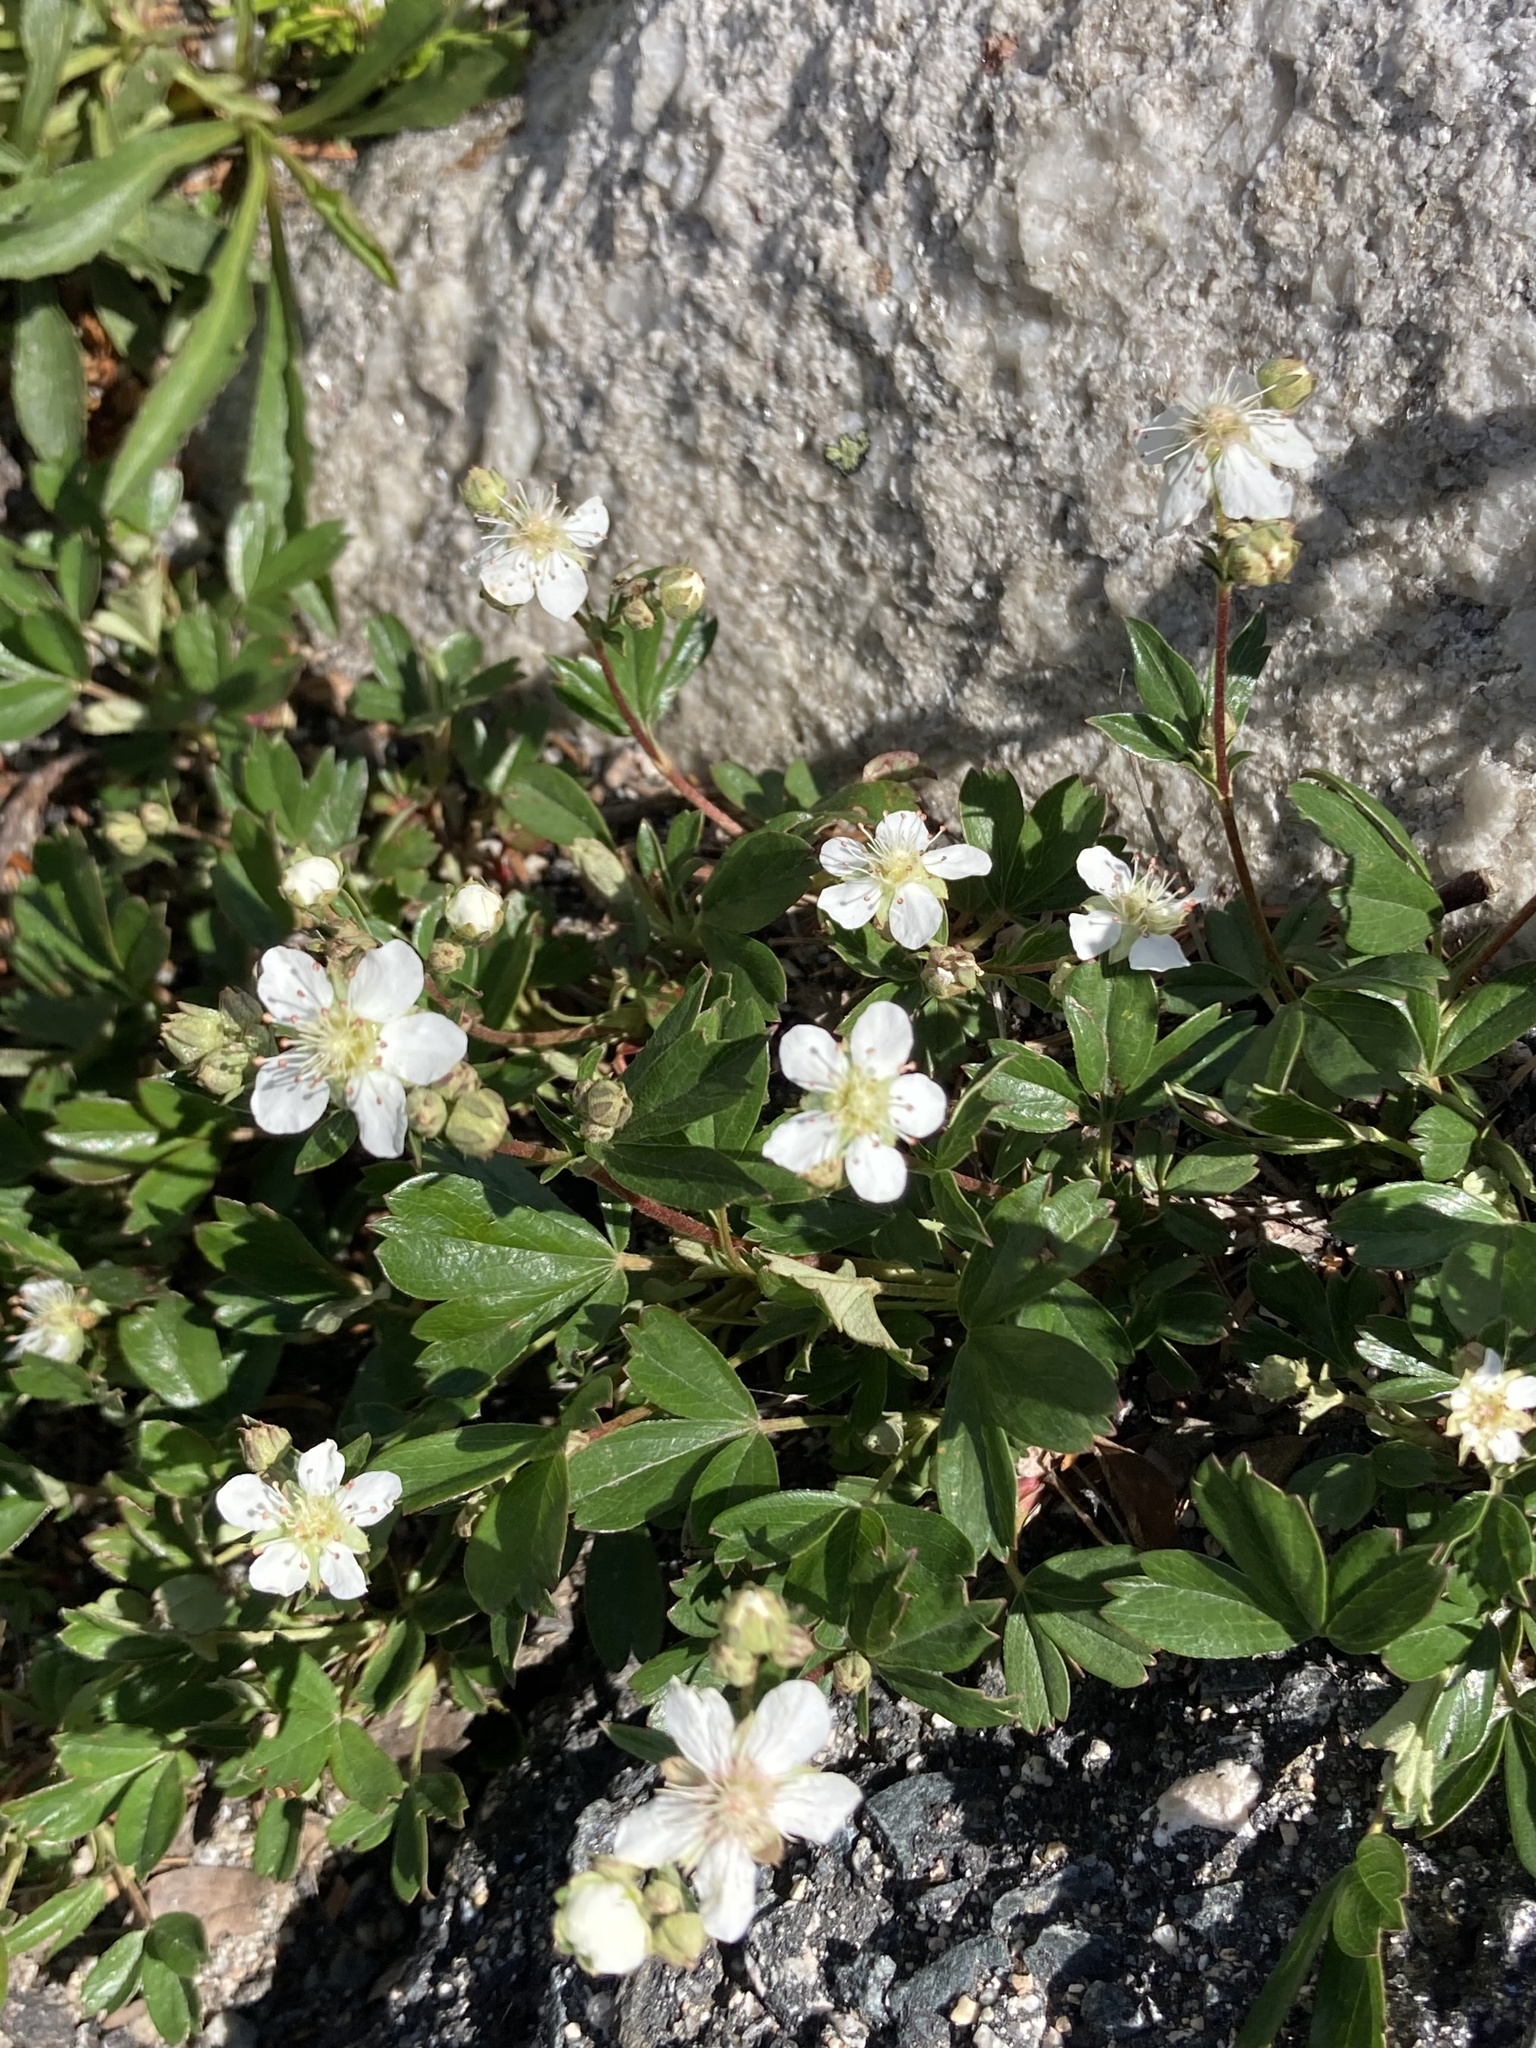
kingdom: Plantae
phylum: Tracheophyta
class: Magnoliopsida
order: Rosales
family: Rosaceae
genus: Sibbaldia
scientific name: Sibbaldia tridentata
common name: Three-toothed cinquefoil
